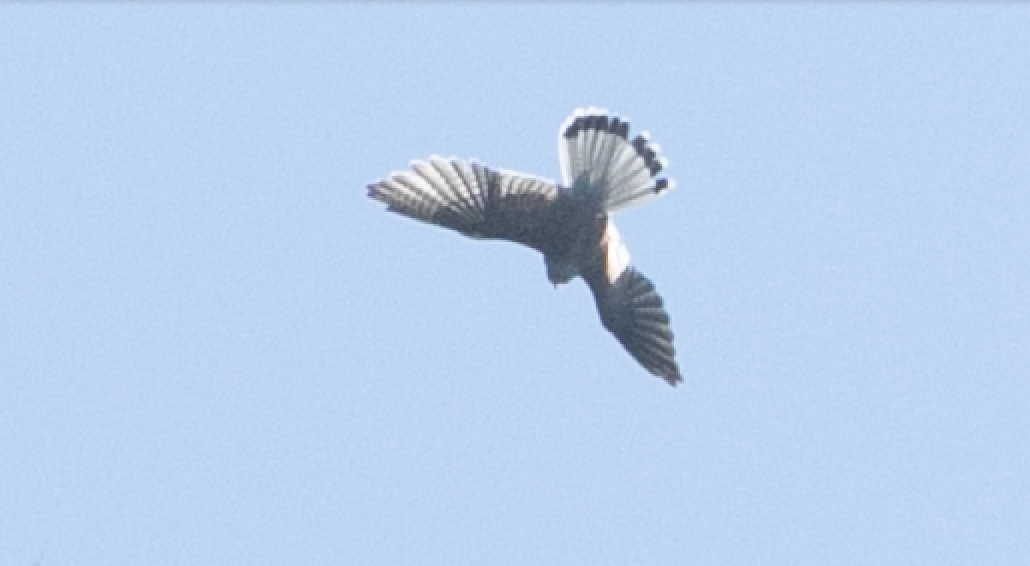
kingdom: Animalia
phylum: Chordata
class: Aves
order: Falconiformes
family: Falconidae
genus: Falco
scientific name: Falco tinnunculus
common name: Common kestrel
